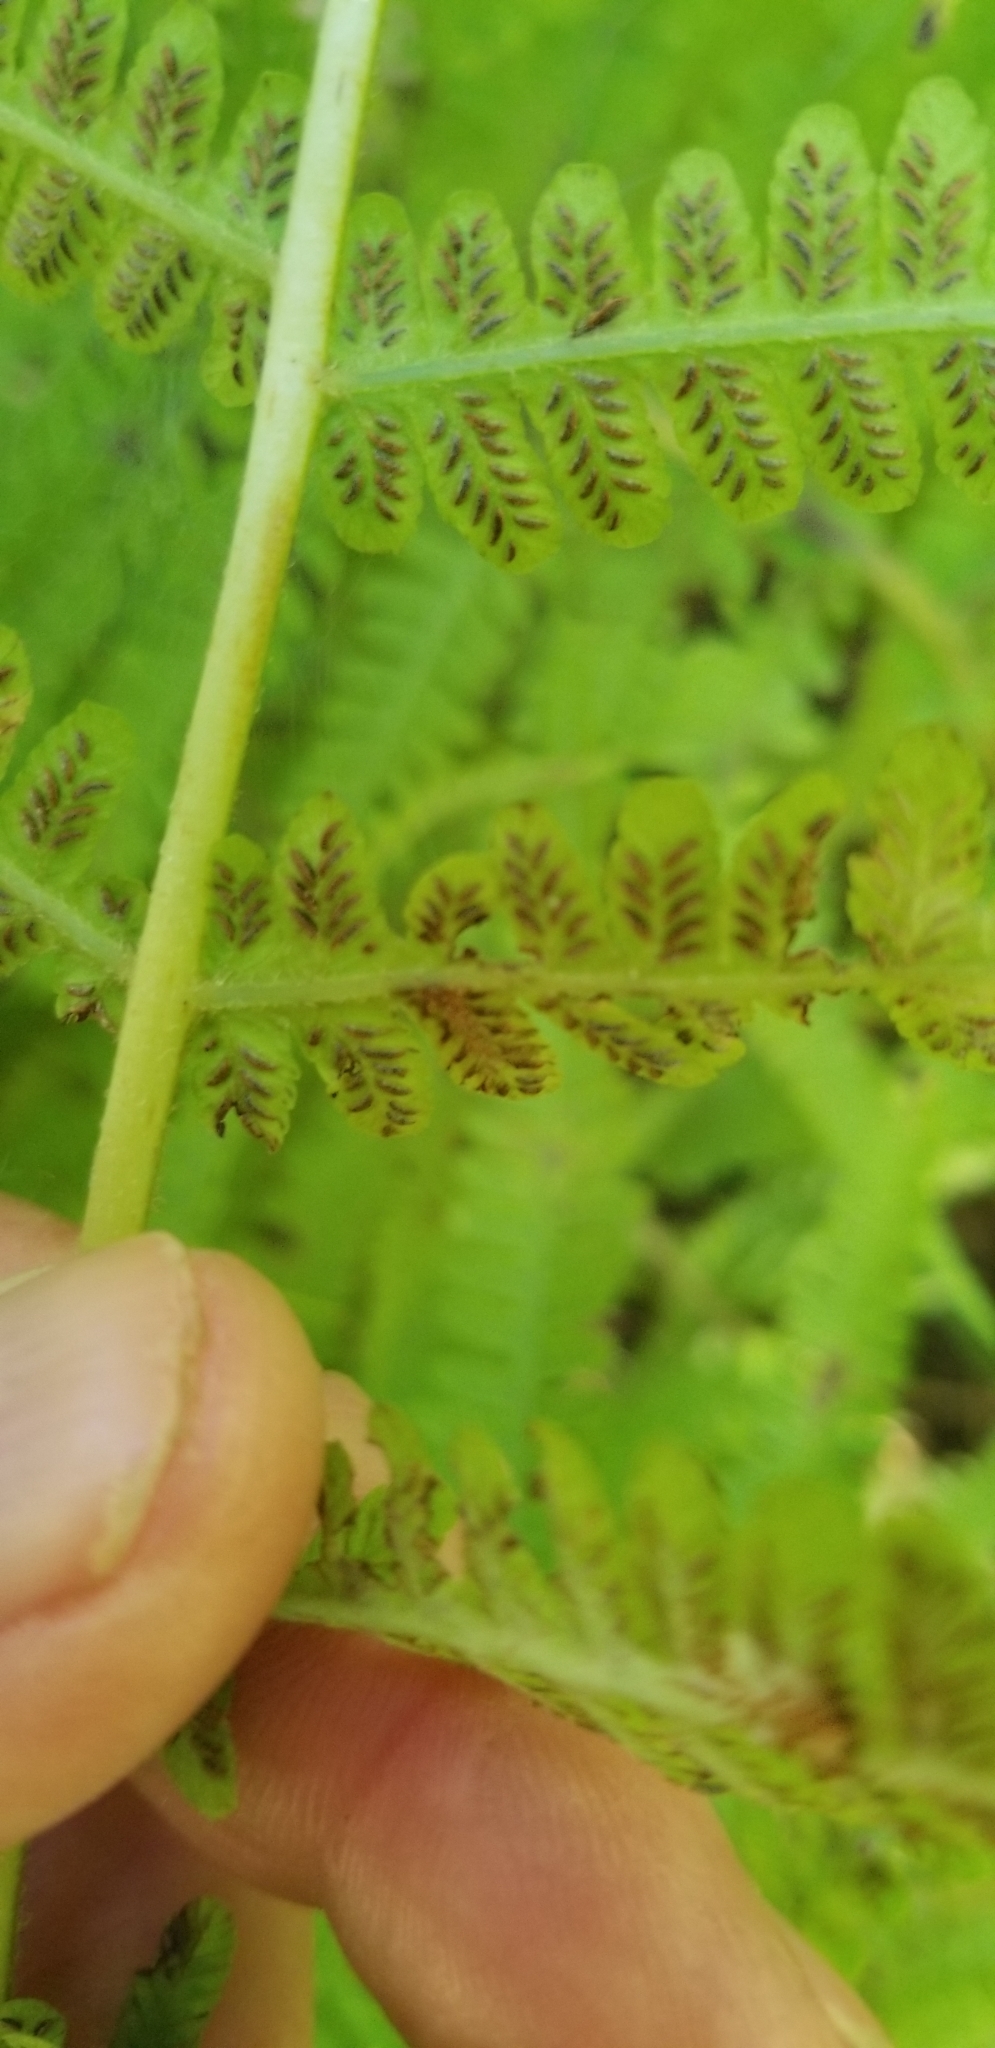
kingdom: Plantae
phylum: Tracheophyta
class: Polypodiopsida
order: Polypodiales
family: Athyriaceae
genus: Deparia
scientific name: Deparia acrostichoides
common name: Silver false spleenwort
